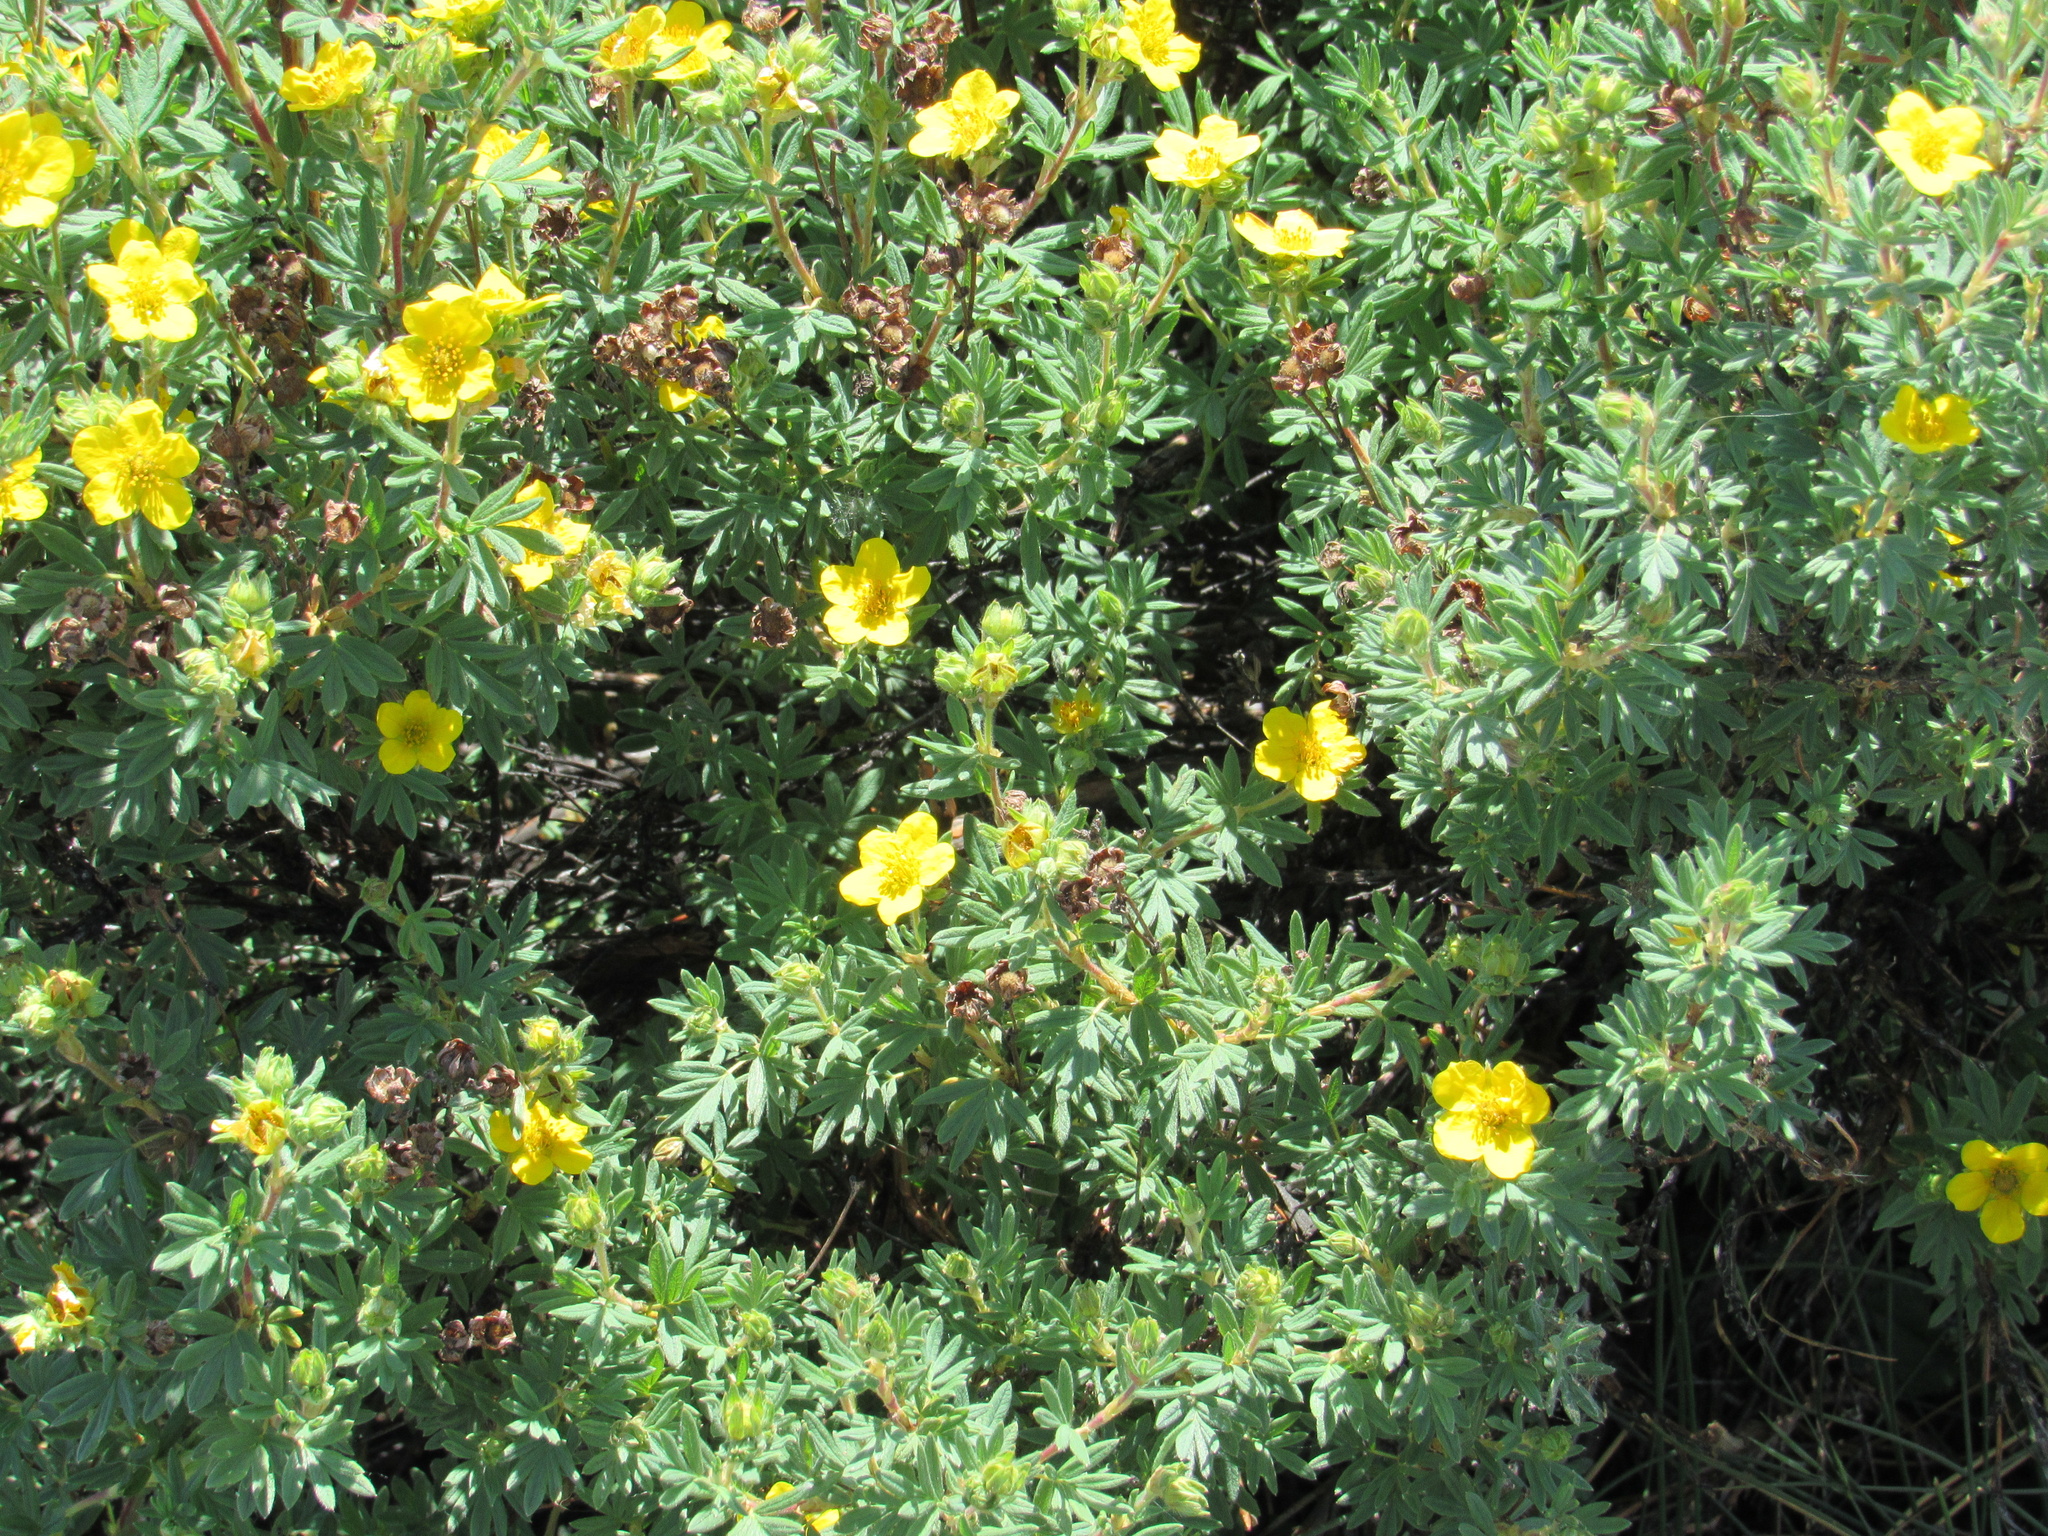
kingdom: Plantae
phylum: Tracheophyta
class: Magnoliopsida
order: Rosales
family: Rosaceae
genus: Dasiphora
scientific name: Dasiphora fruticosa
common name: Shrubby cinquefoil
